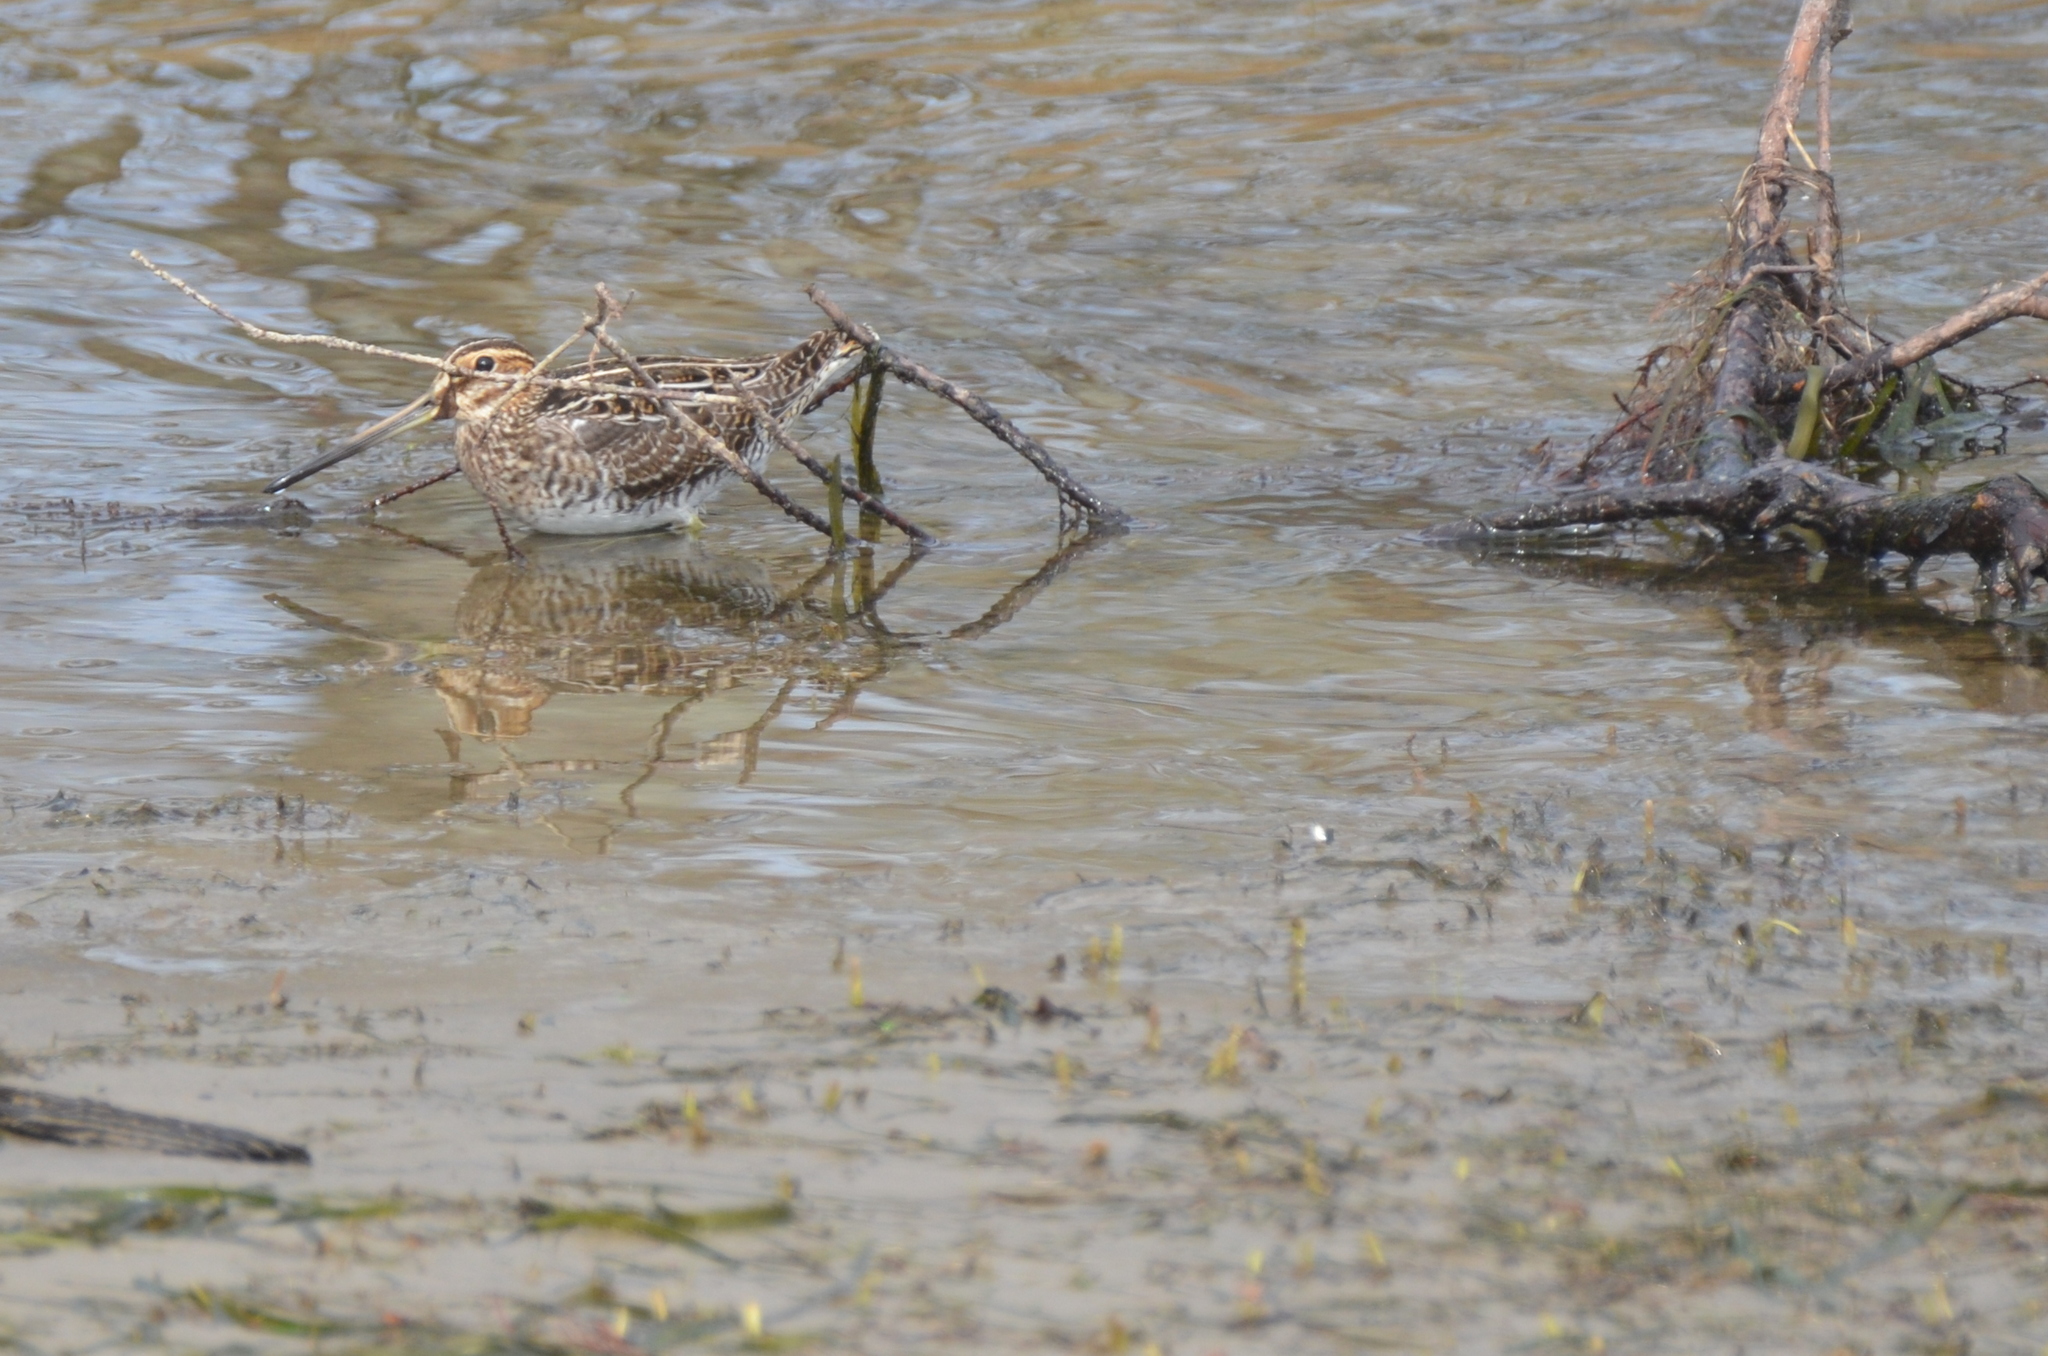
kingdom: Animalia
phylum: Chordata
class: Aves
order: Charadriiformes
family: Scolopacidae
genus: Gallinago
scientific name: Gallinago delicata
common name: Wilson's snipe
